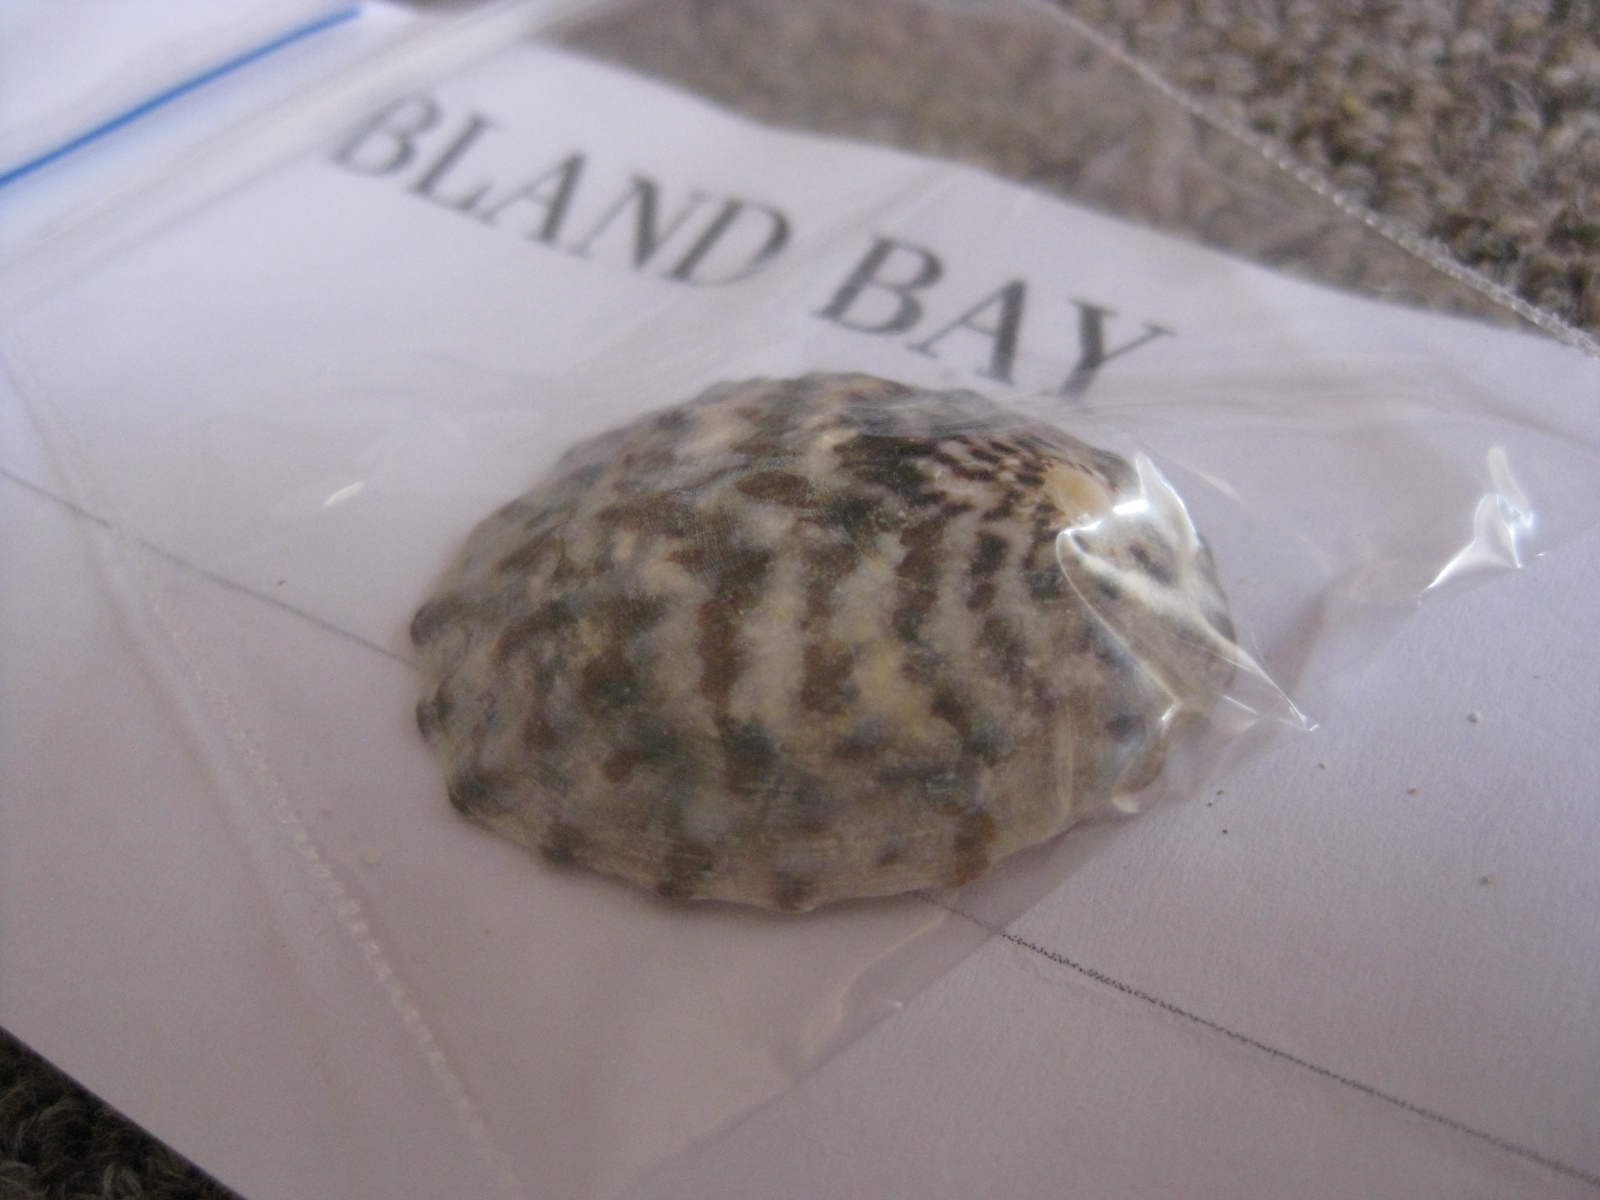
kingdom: Animalia
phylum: Mollusca
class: Gastropoda
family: Nacellidae
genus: Cellana
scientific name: Cellana radians
